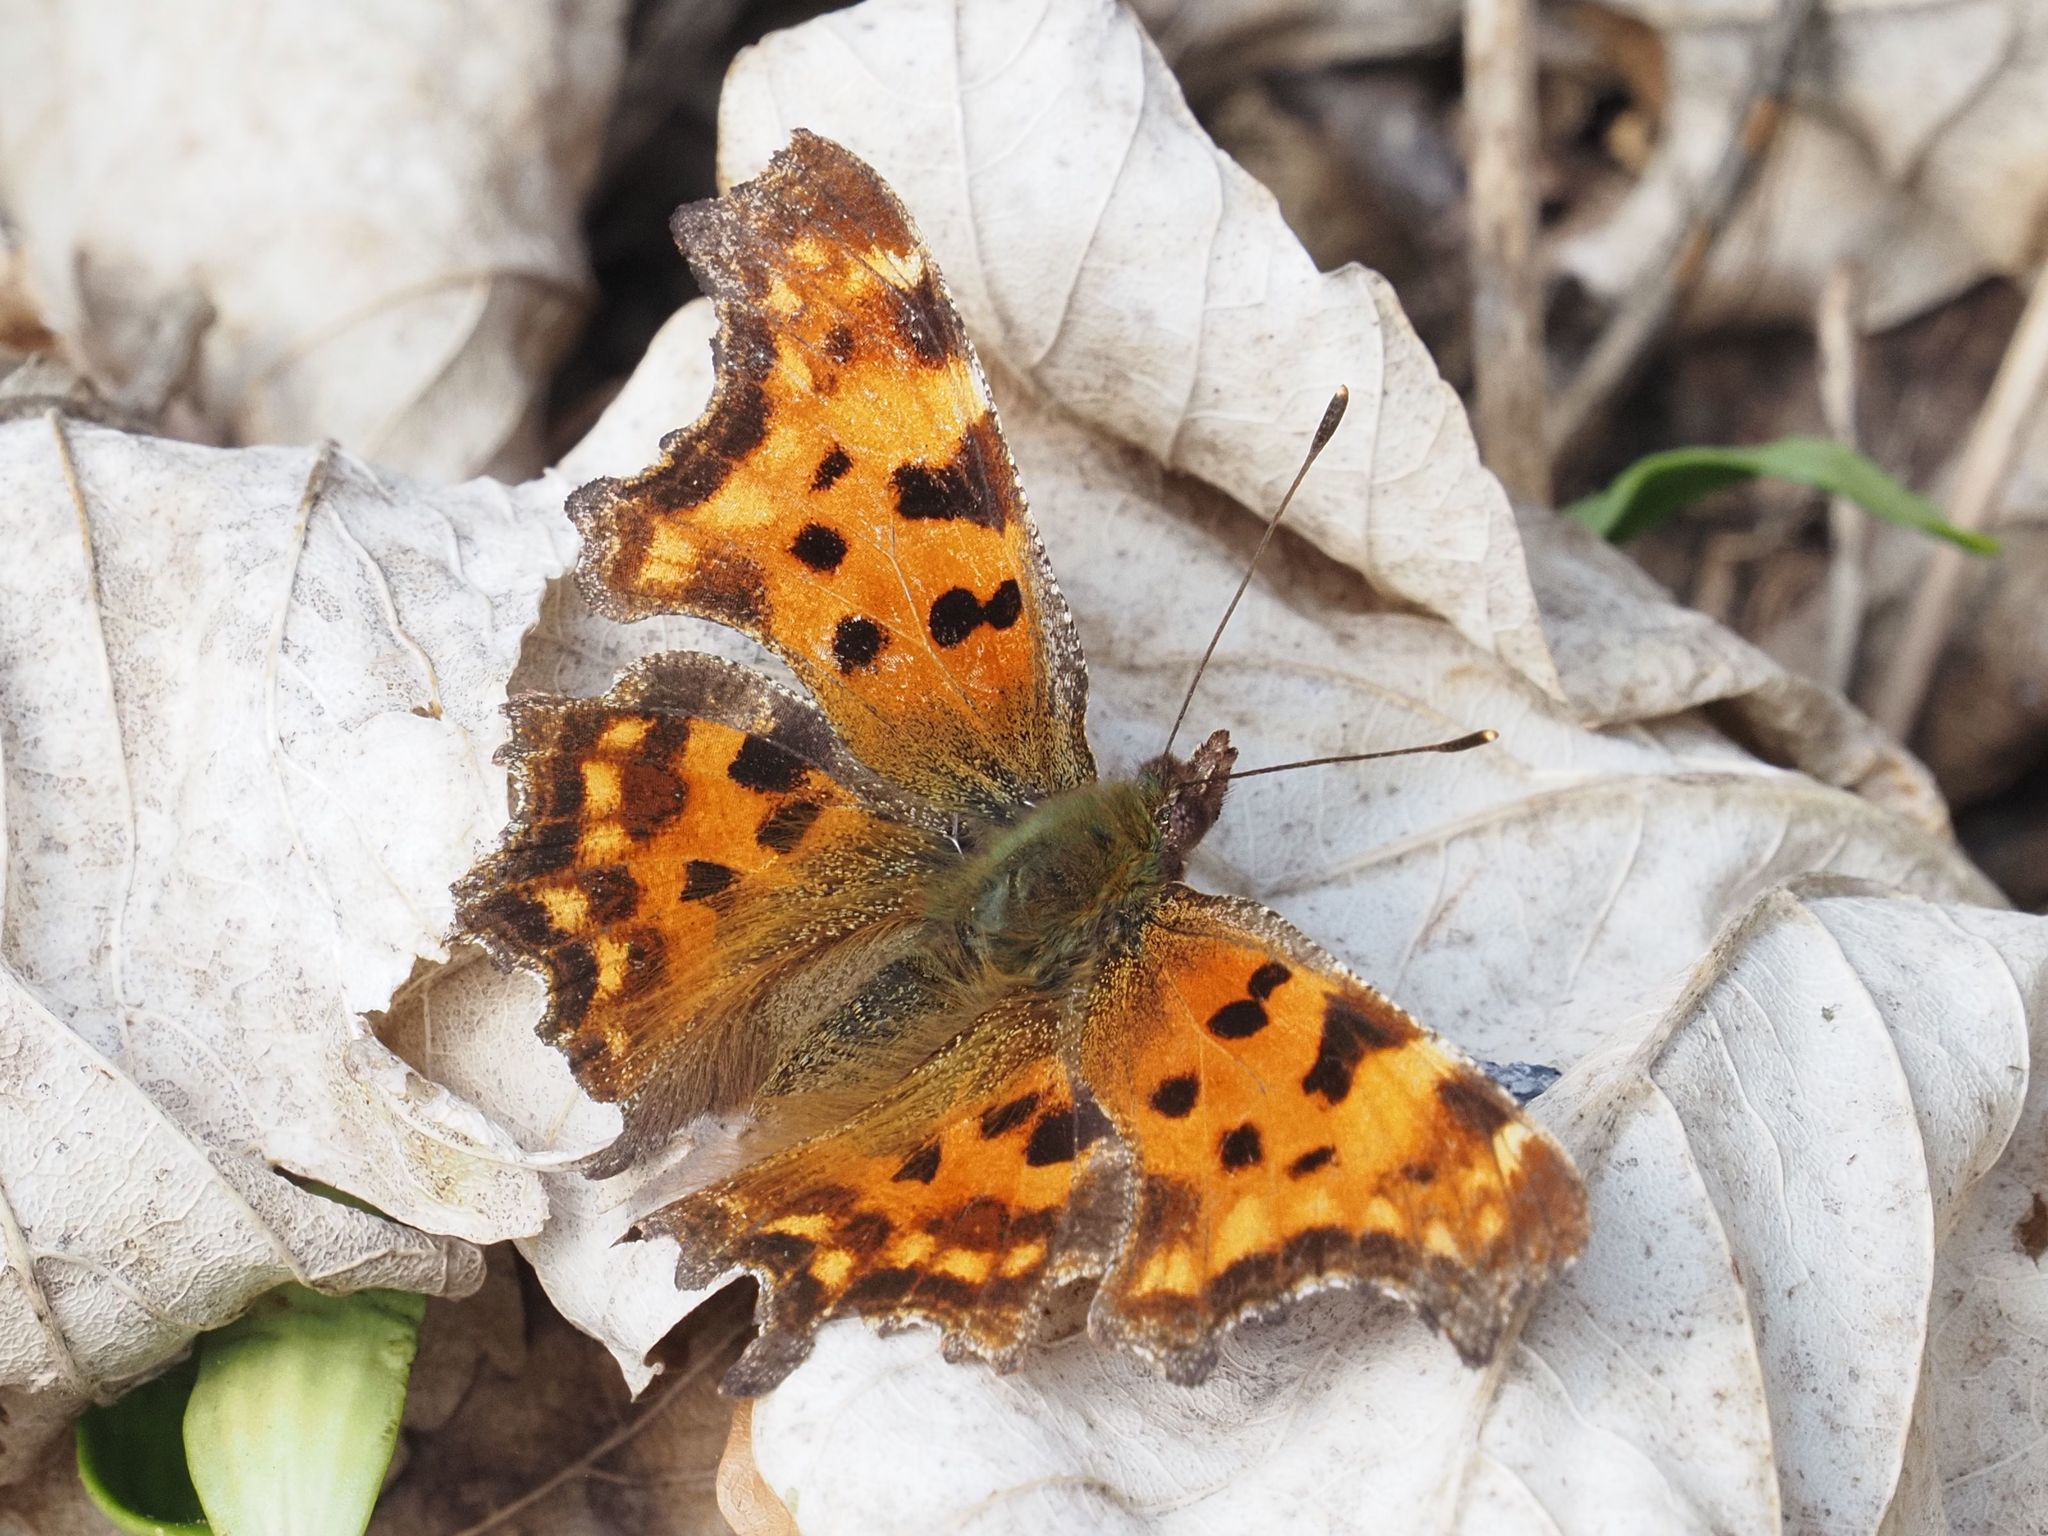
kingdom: Animalia
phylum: Arthropoda
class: Insecta
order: Lepidoptera
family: Nymphalidae
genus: Polygonia
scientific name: Polygonia c-album
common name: Comma
